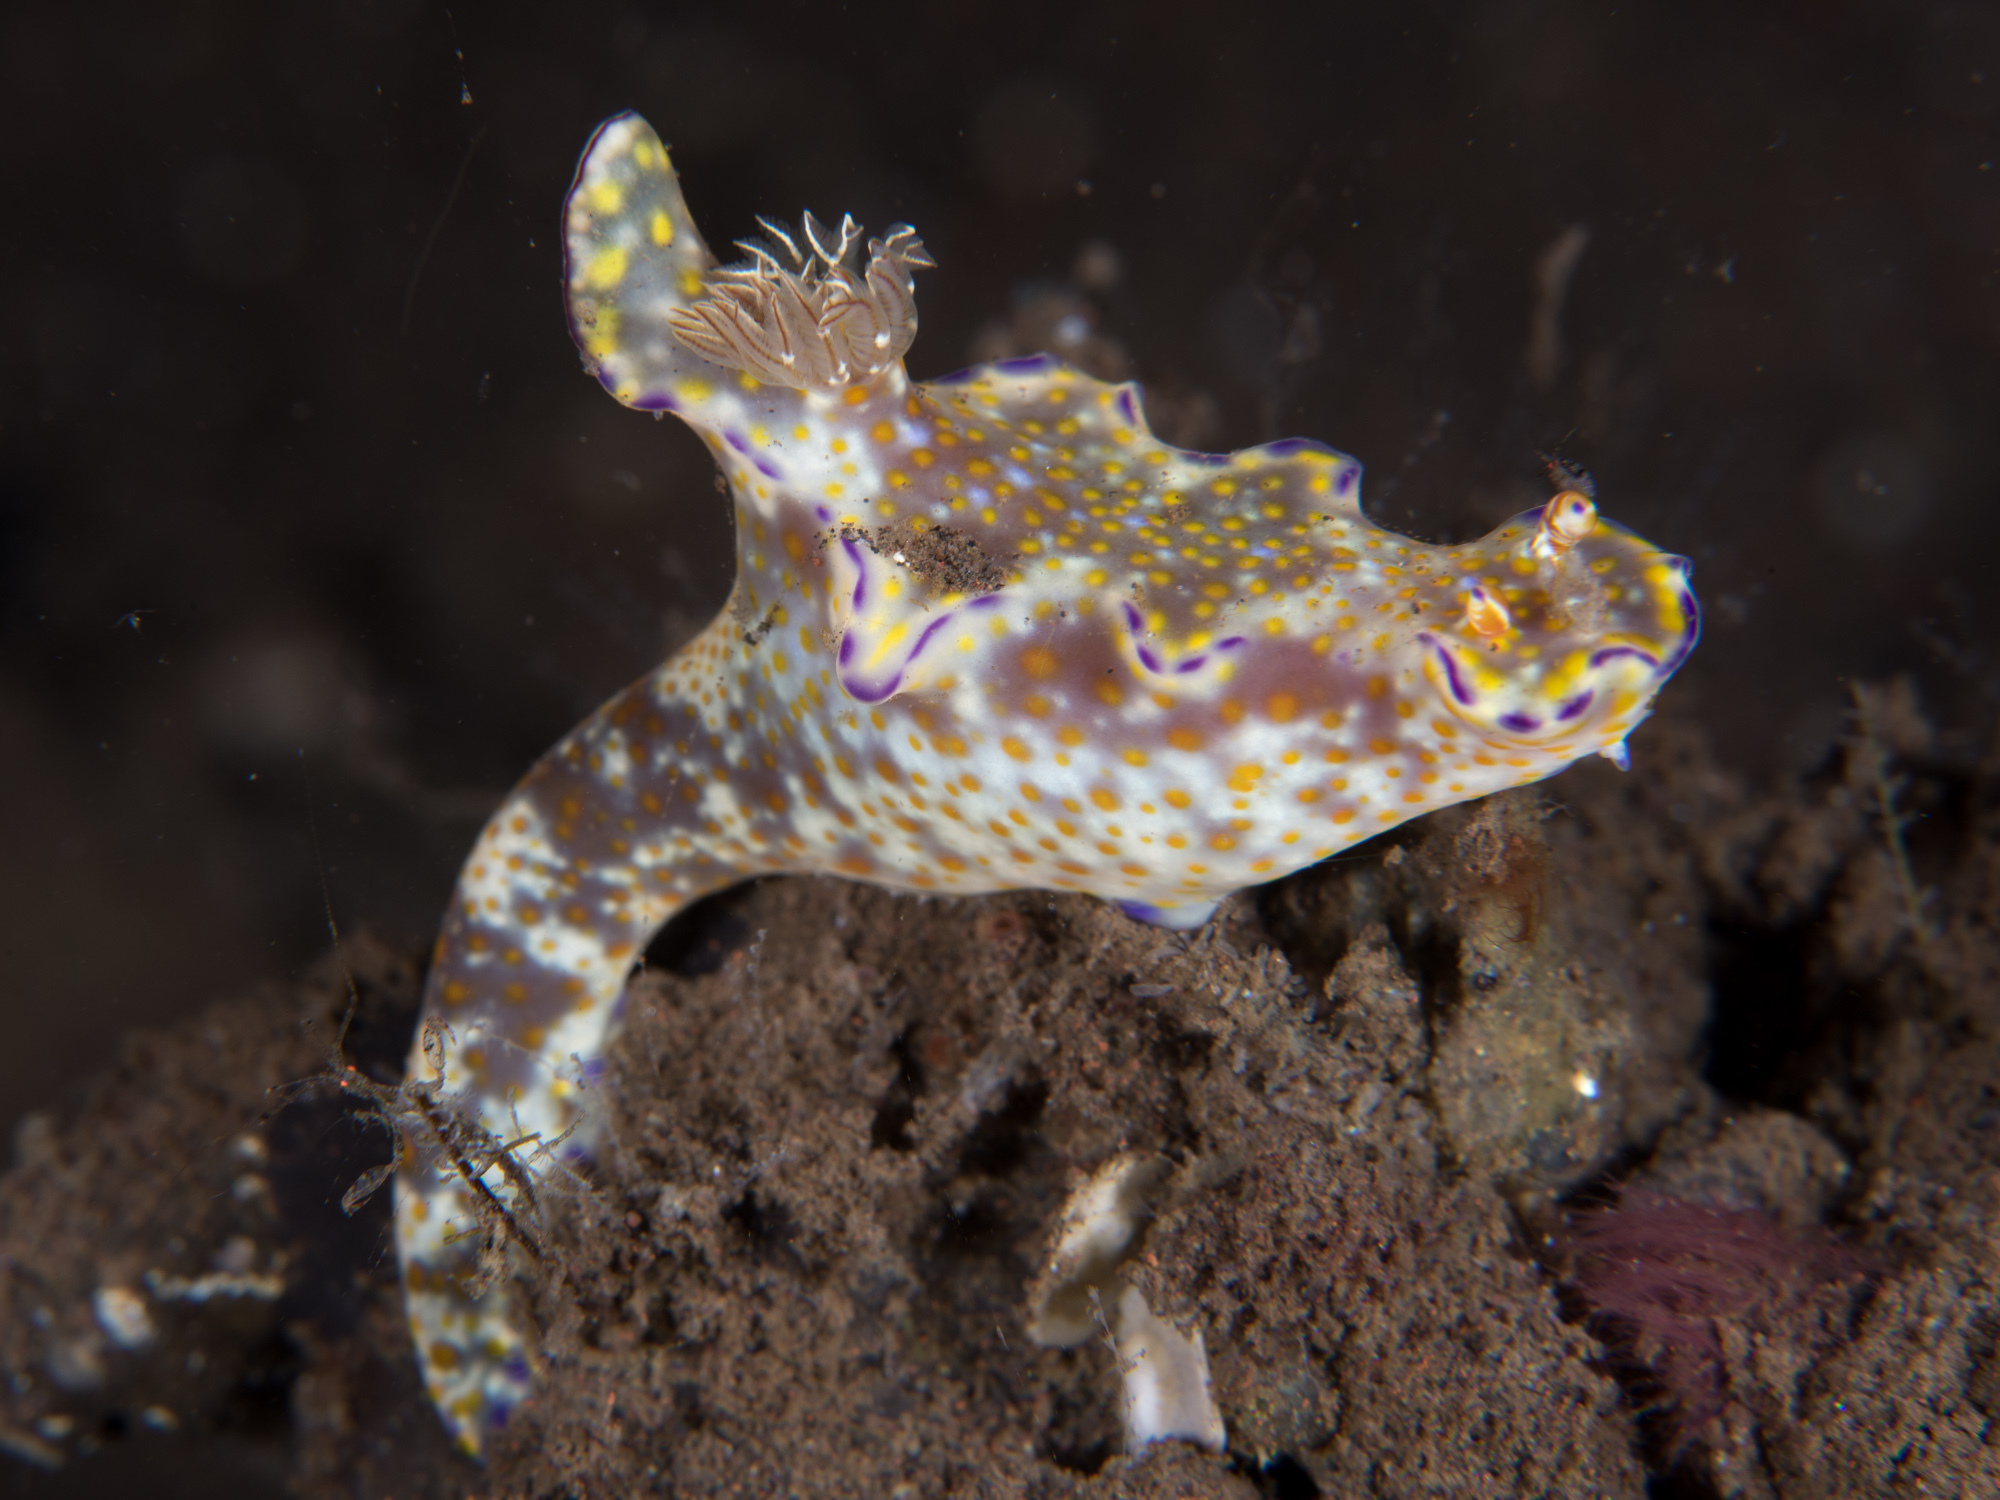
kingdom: Animalia
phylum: Mollusca
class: Gastropoda
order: Nudibranchia
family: Chromodorididae
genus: Ceratosoma
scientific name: Ceratosoma tenue
